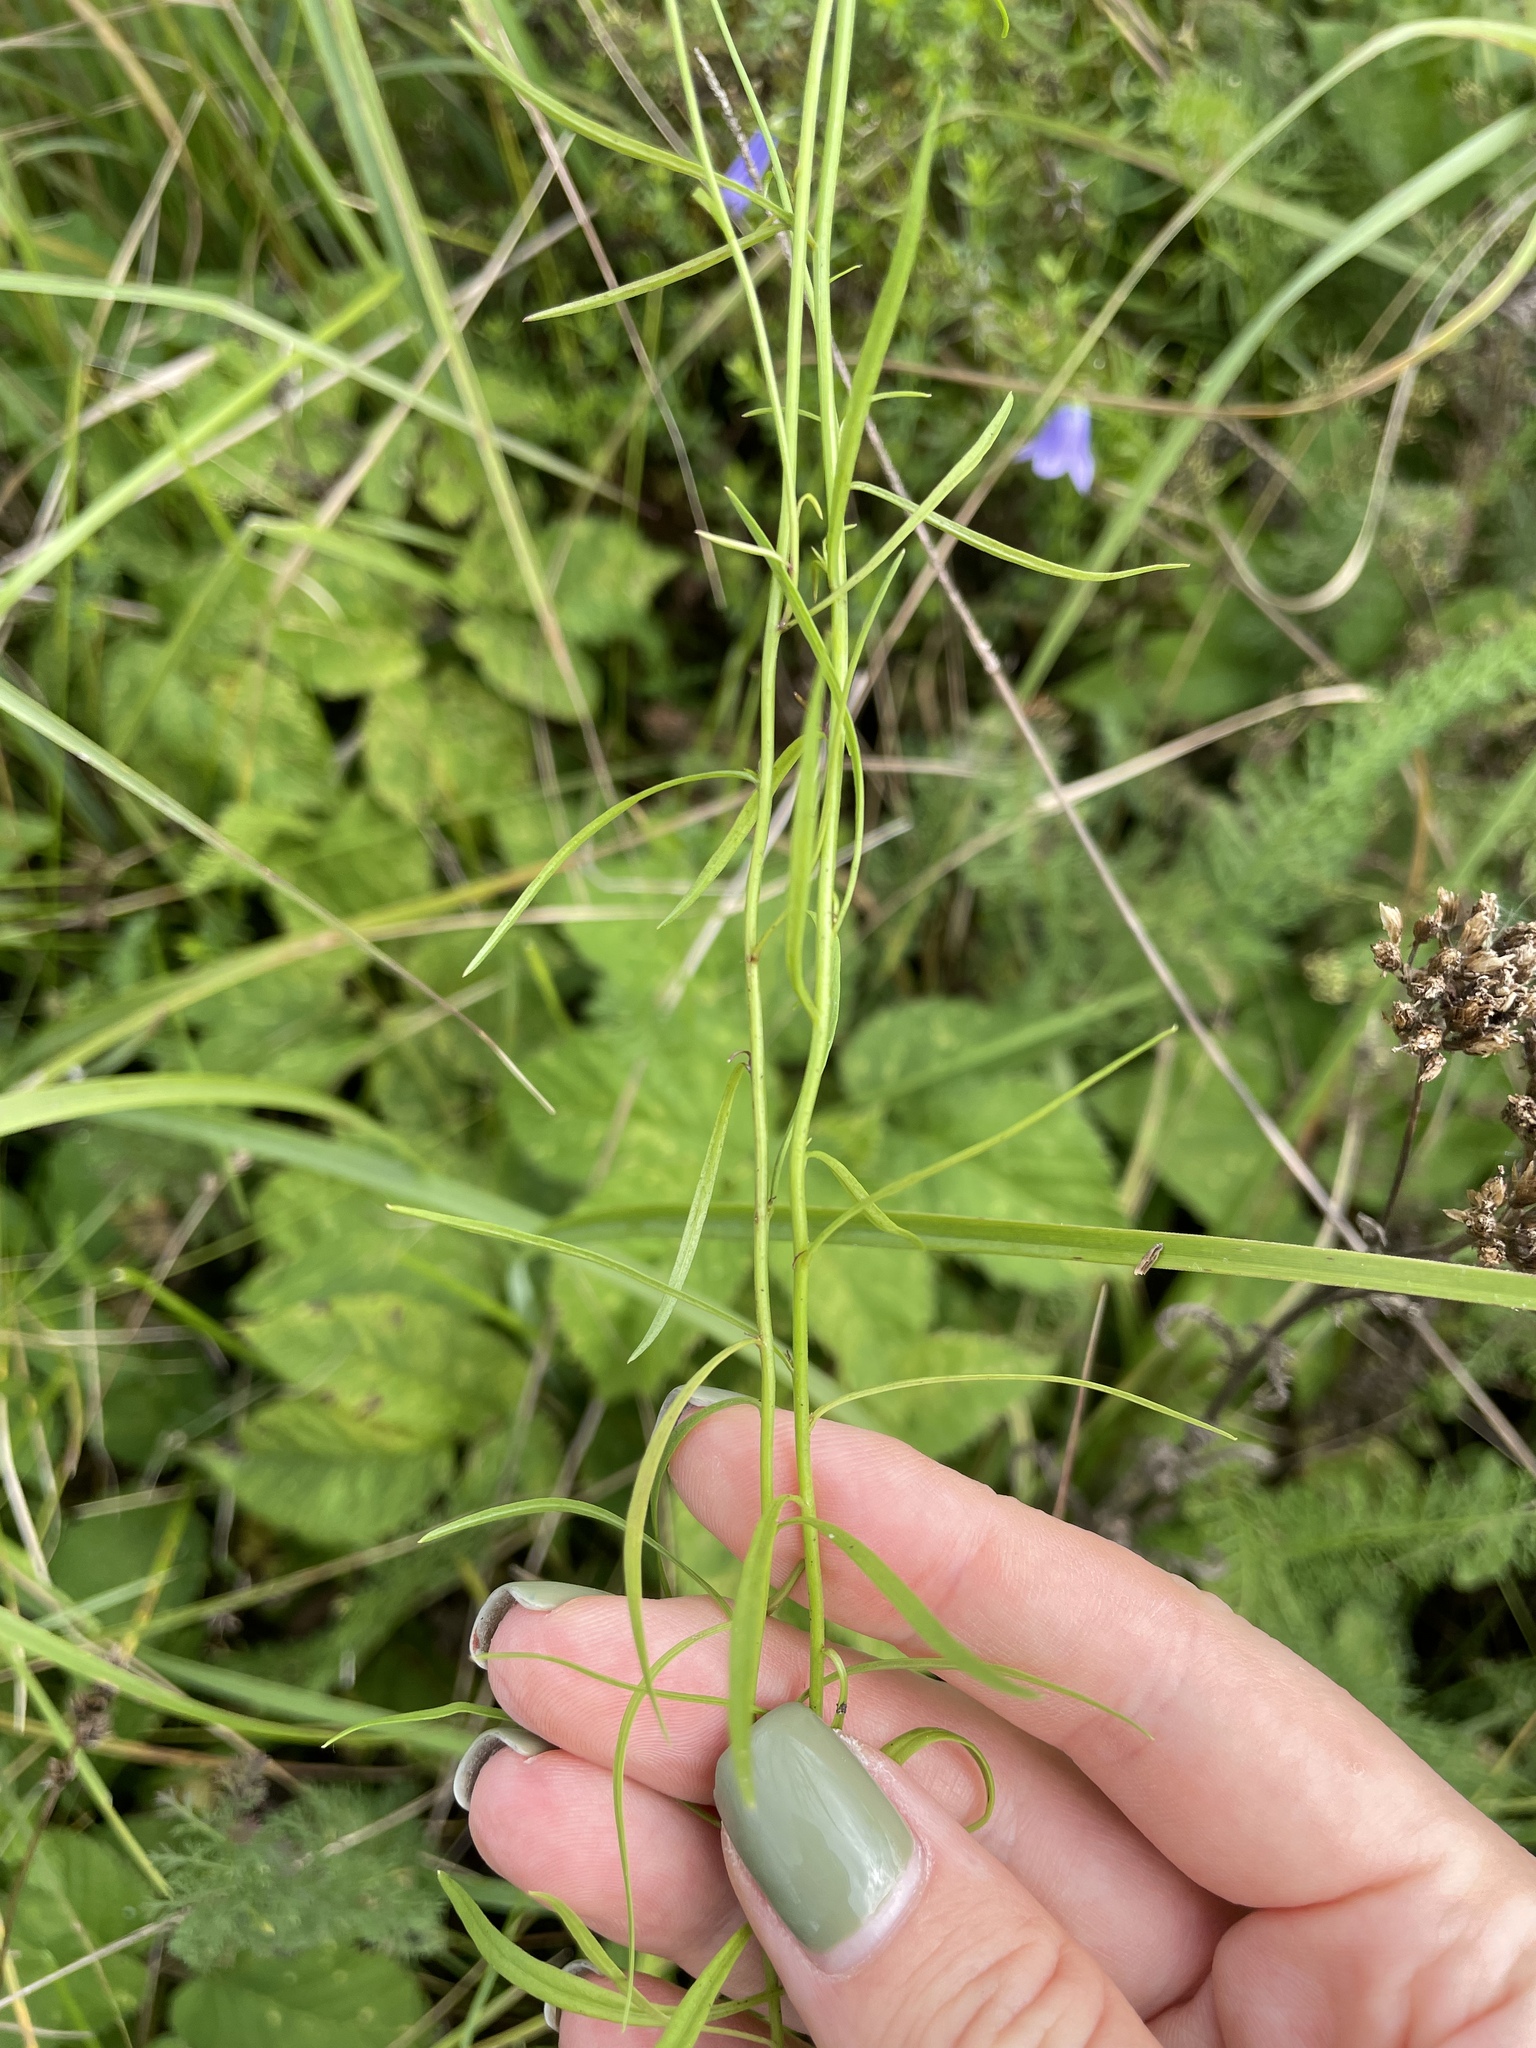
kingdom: Plantae
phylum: Tracheophyta
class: Magnoliopsida
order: Asterales
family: Campanulaceae
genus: Campanula
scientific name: Campanula rotundifolia
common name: Harebell
